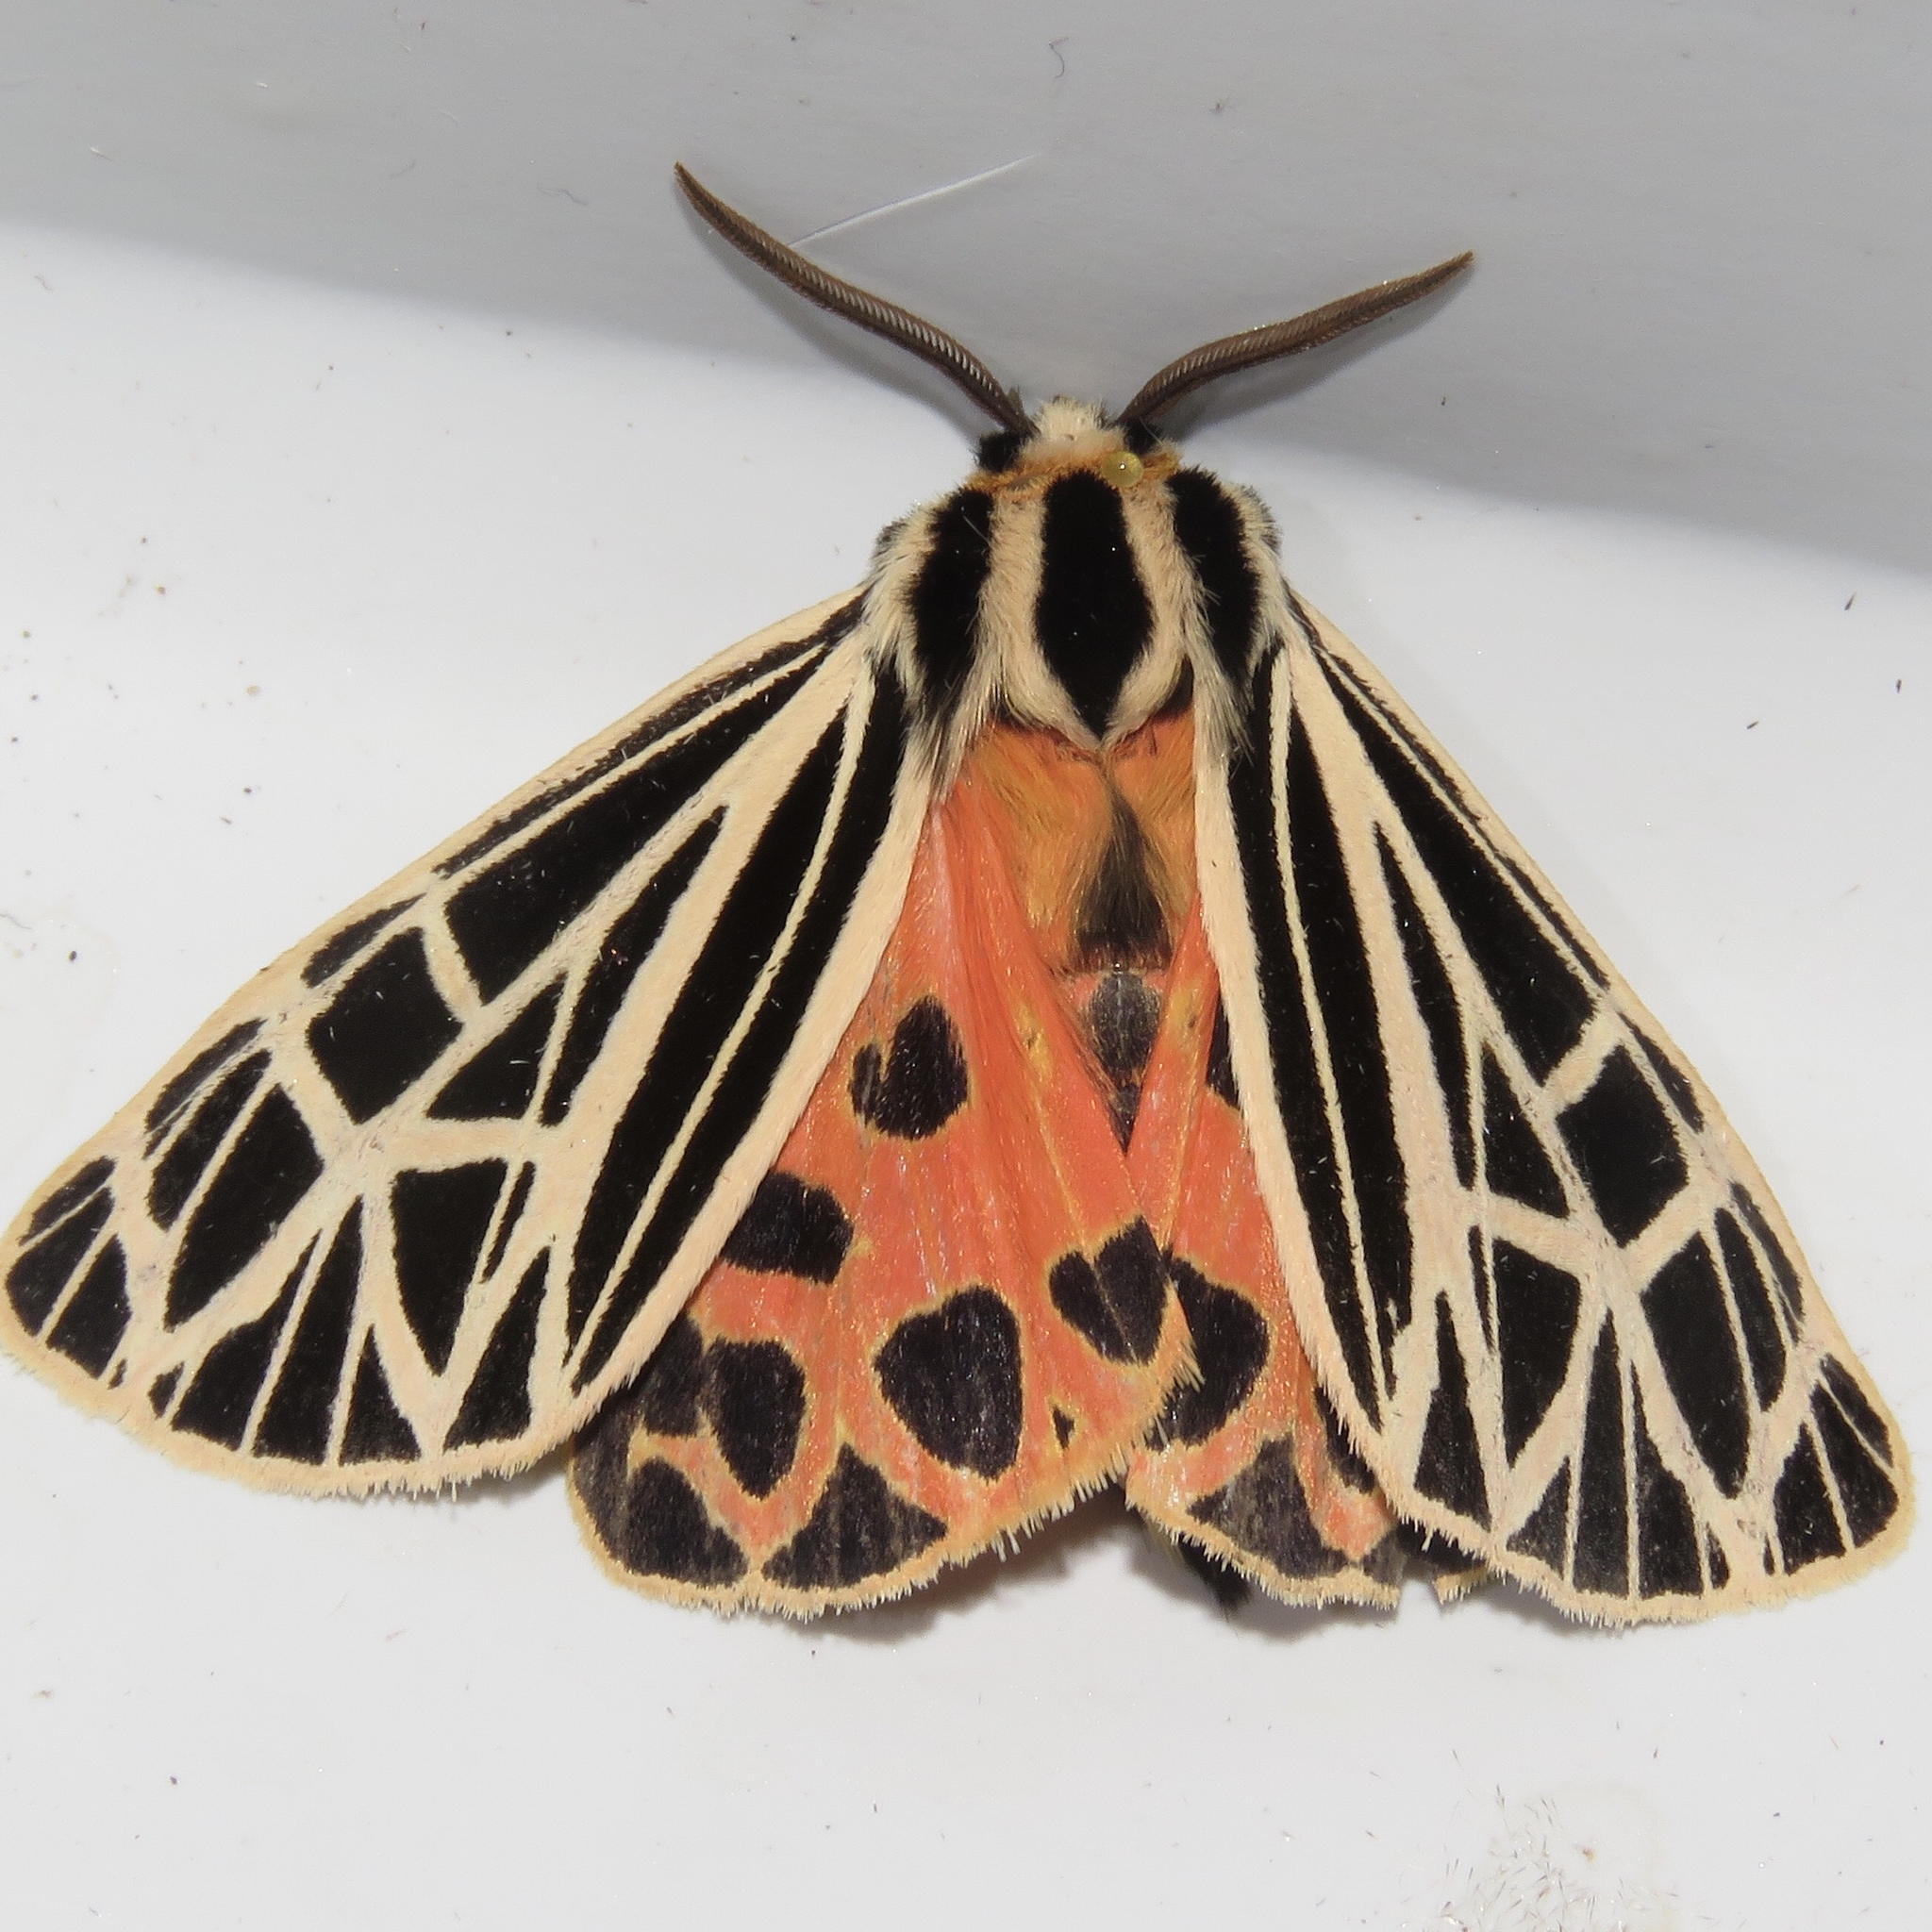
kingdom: Animalia
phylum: Arthropoda
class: Insecta
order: Lepidoptera
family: Erebidae
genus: Grammia
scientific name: Grammia virgo
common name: Virgin tiger moth
